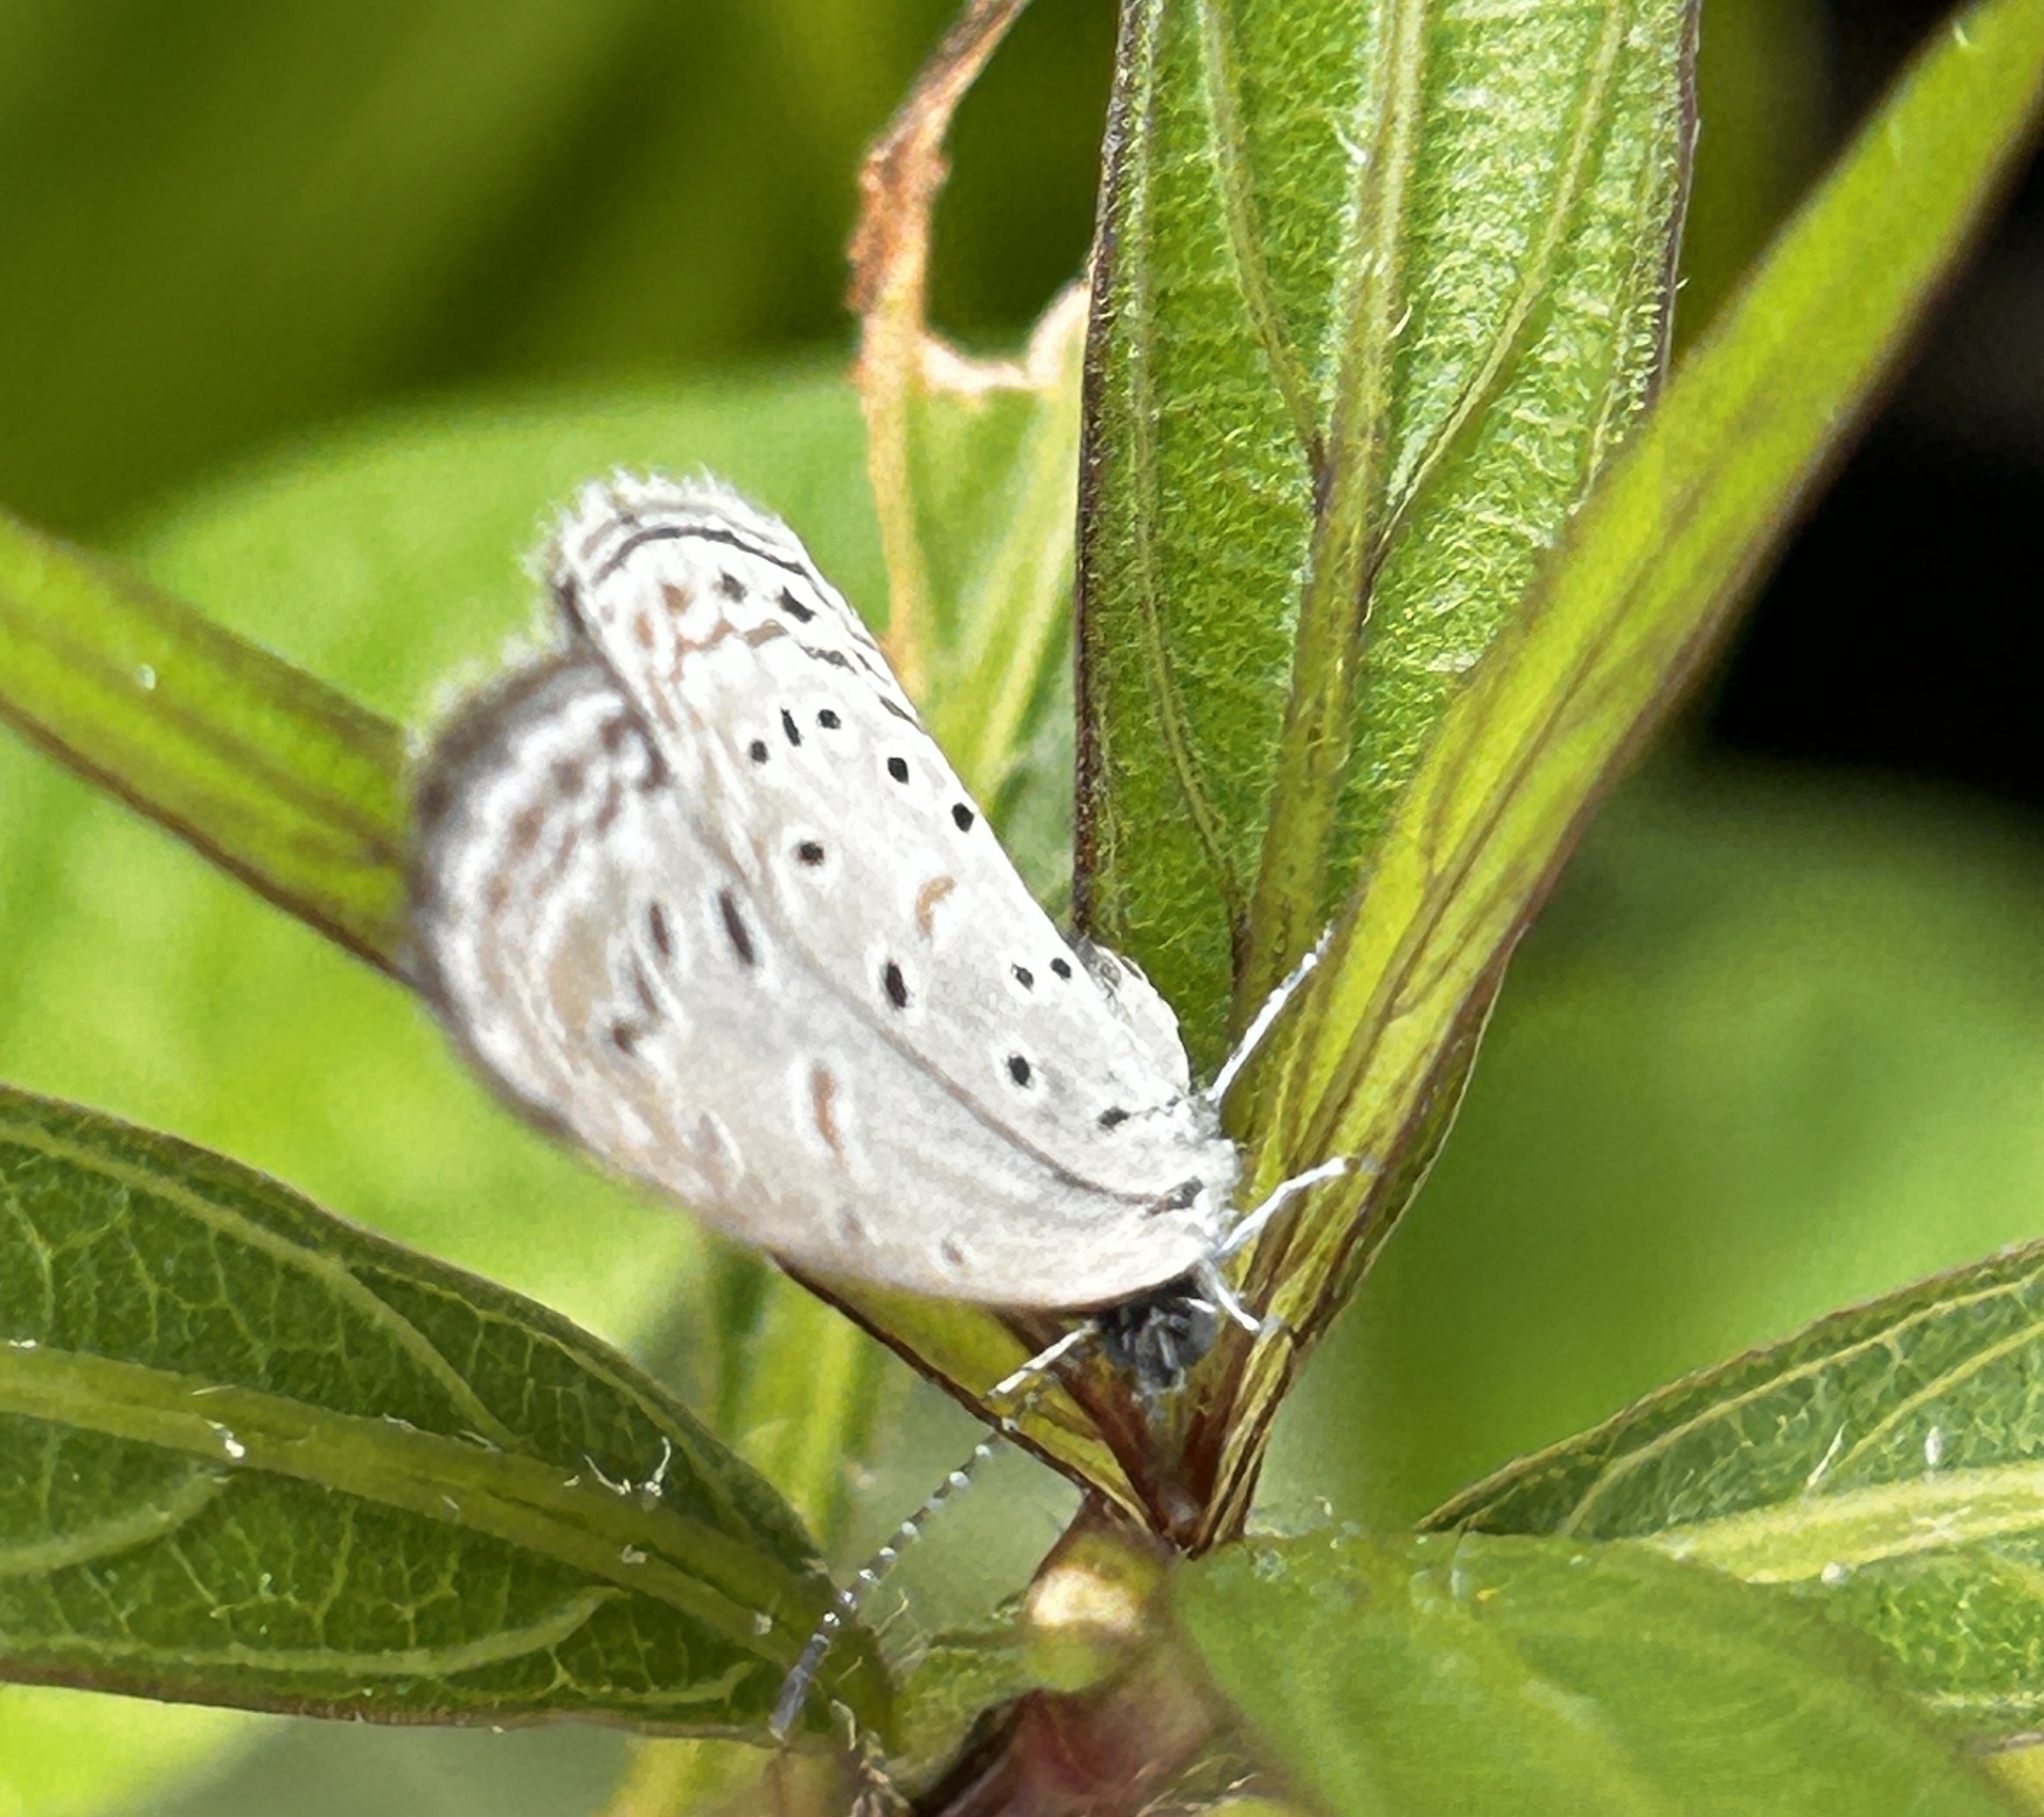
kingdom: Animalia
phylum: Arthropoda
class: Insecta
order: Lepidoptera
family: Lycaenidae
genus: Zizula
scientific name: Zizula hylax
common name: Gaika blue
